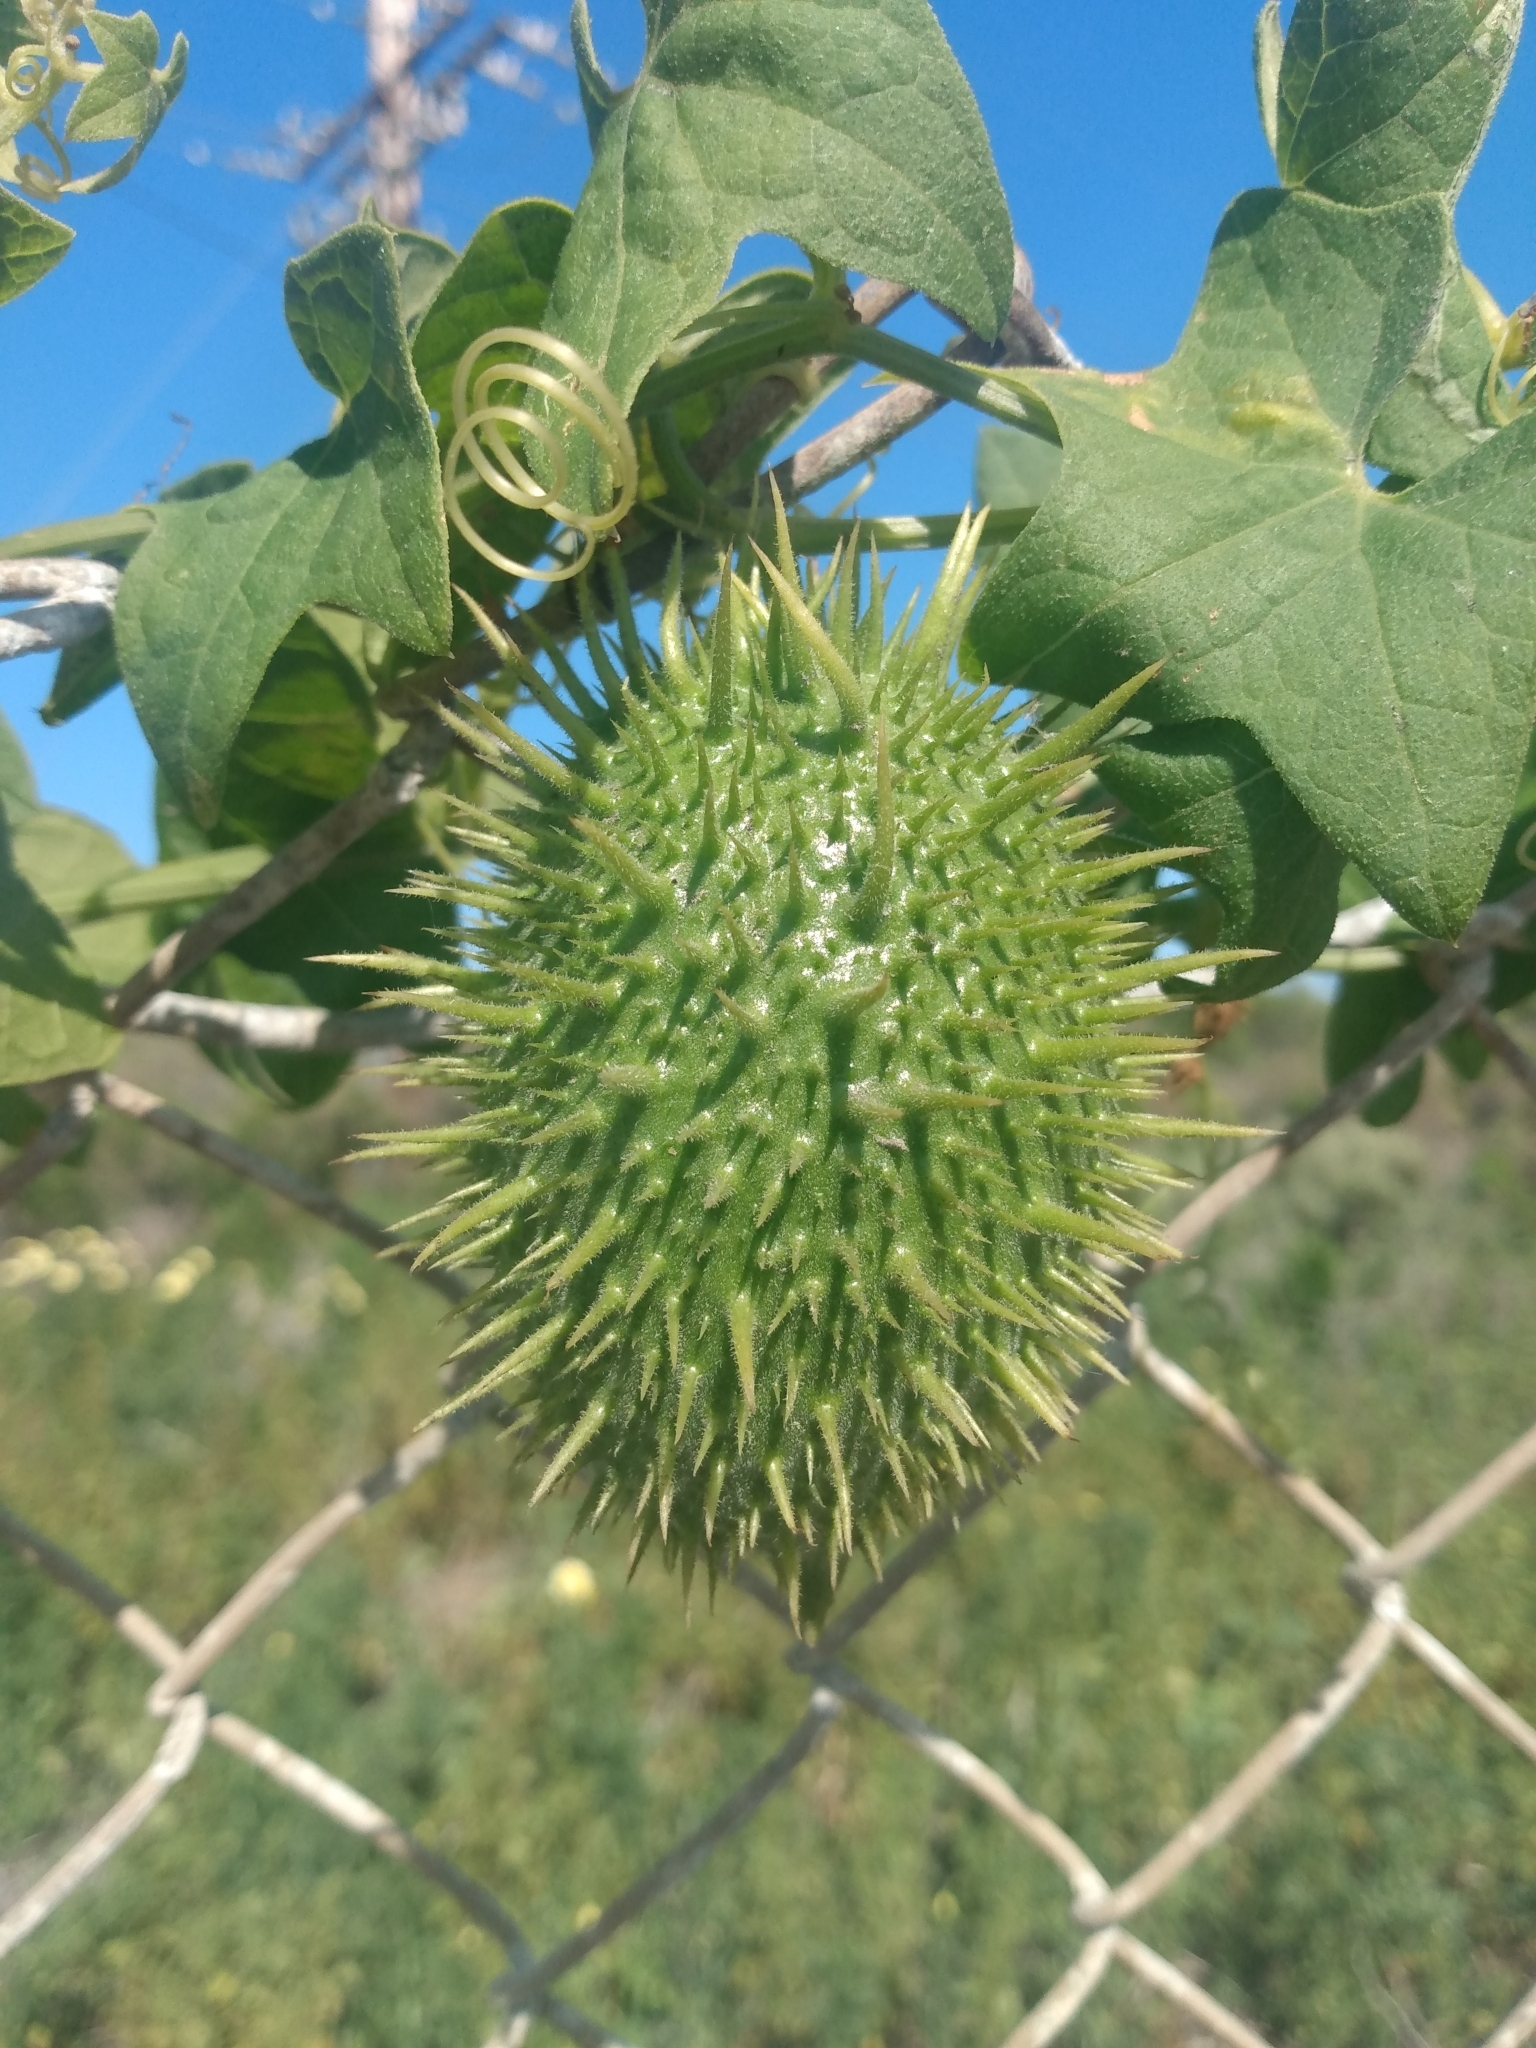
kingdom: Plantae
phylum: Tracheophyta
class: Magnoliopsida
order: Cucurbitales
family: Cucurbitaceae
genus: Marah
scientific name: Marah macrocarpa
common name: Cucamonga manroot
